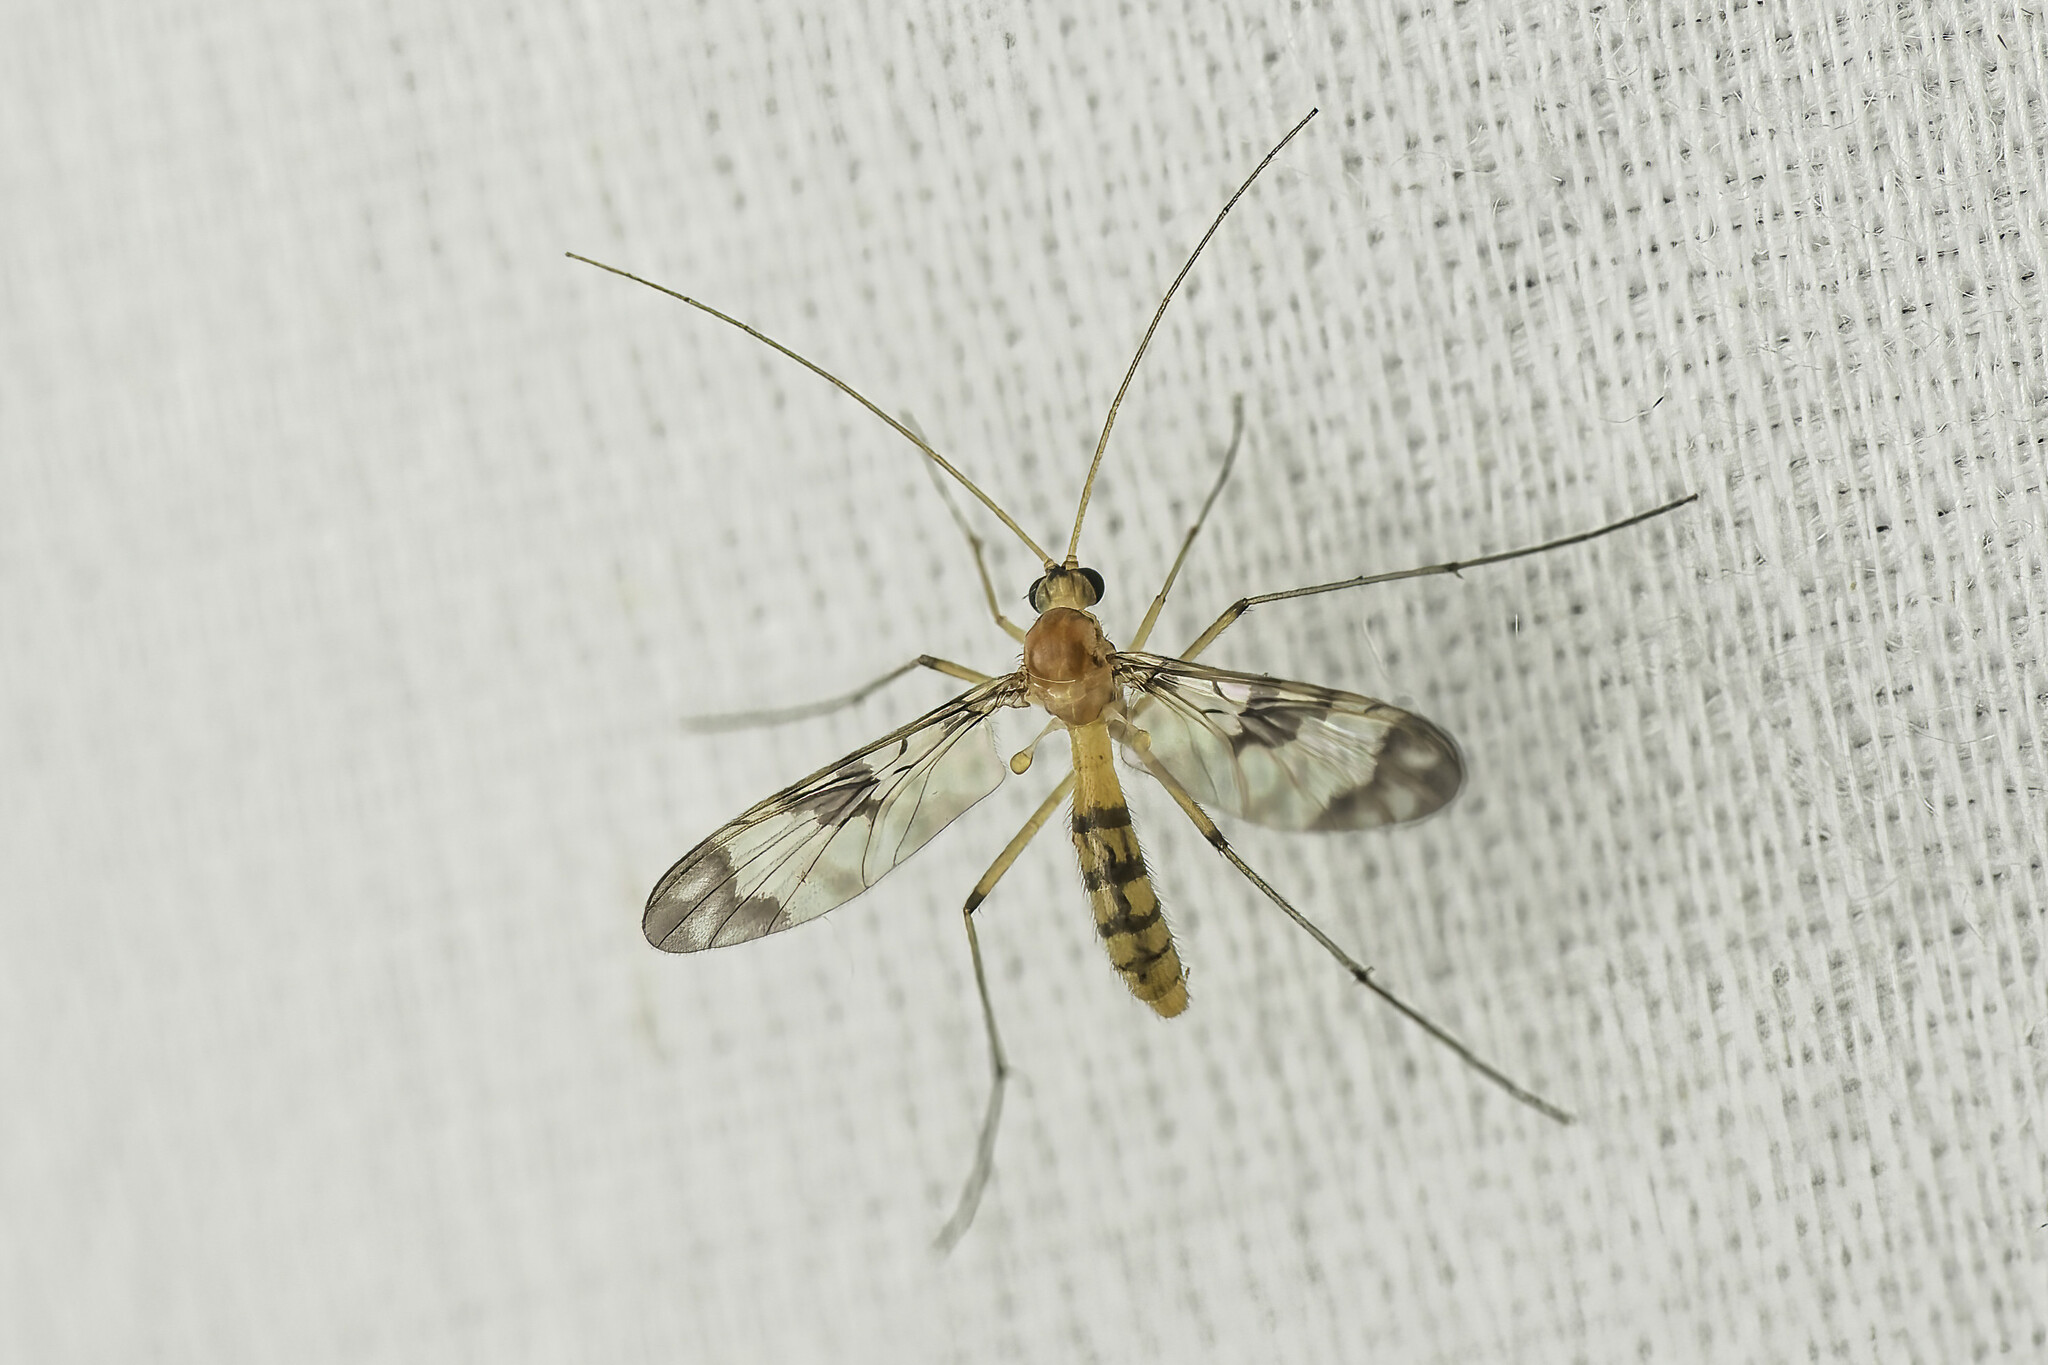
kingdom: Animalia
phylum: Arthropoda
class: Insecta
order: Diptera
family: Keroplatidae
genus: Macrocera
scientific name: Macrocera scoparia
